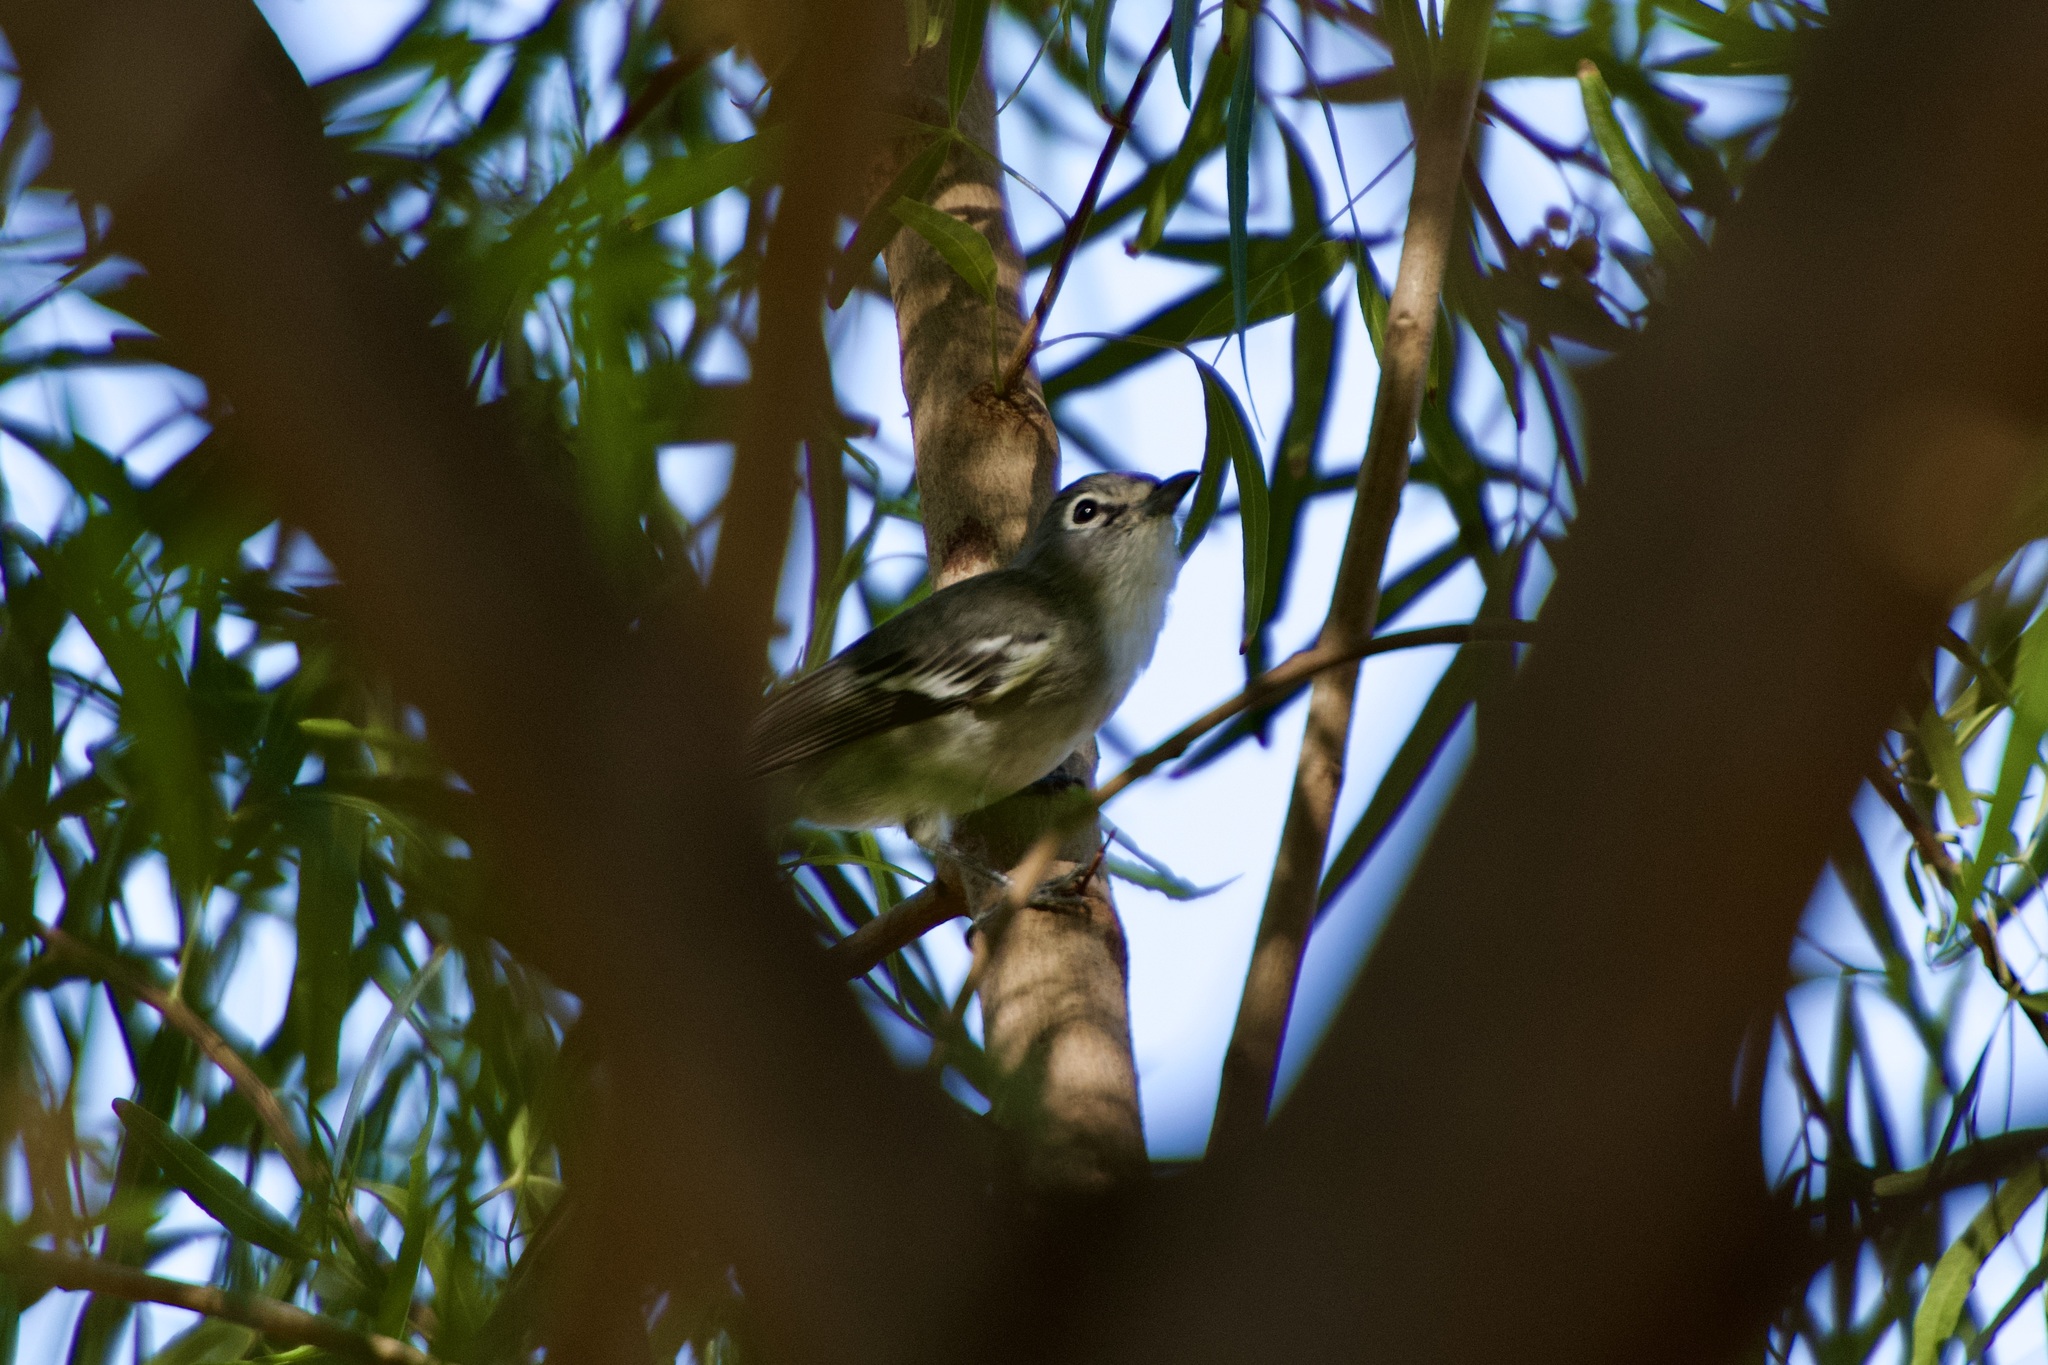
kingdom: Animalia
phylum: Chordata
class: Aves
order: Passeriformes
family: Vireonidae
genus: Vireo
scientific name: Vireo plumbeus
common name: Plumbeous vireo
